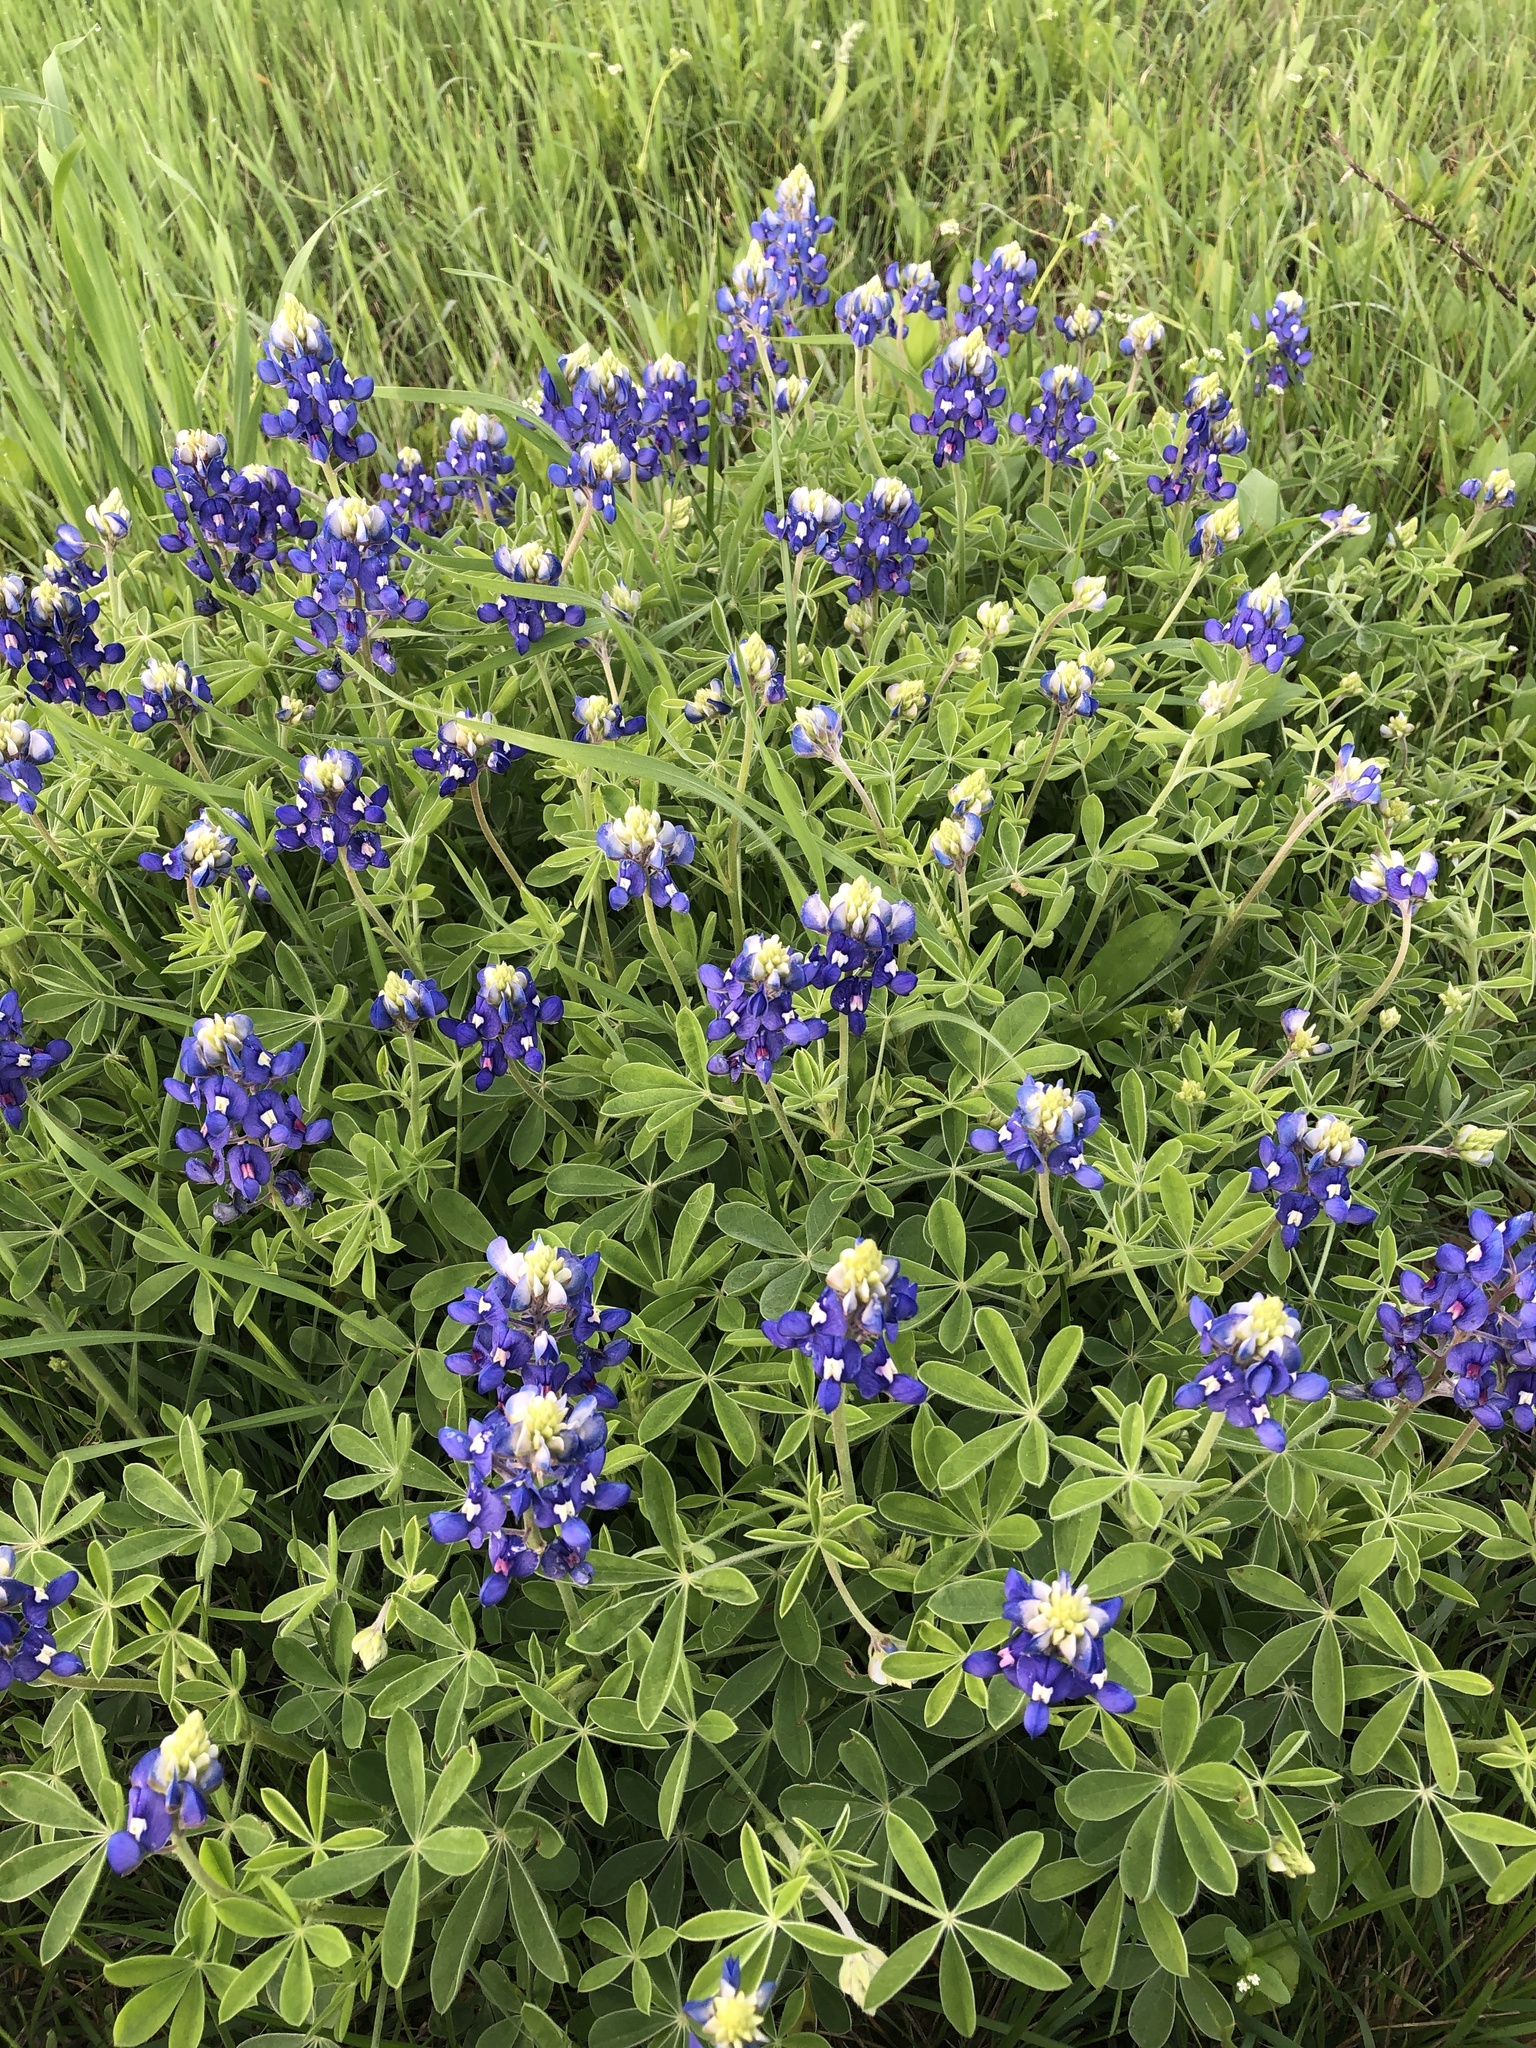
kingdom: Plantae
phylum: Tracheophyta
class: Magnoliopsida
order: Fabales
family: Fabaceae
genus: Lupinus
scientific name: Lupinus texensis
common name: Texas bluebonnet
